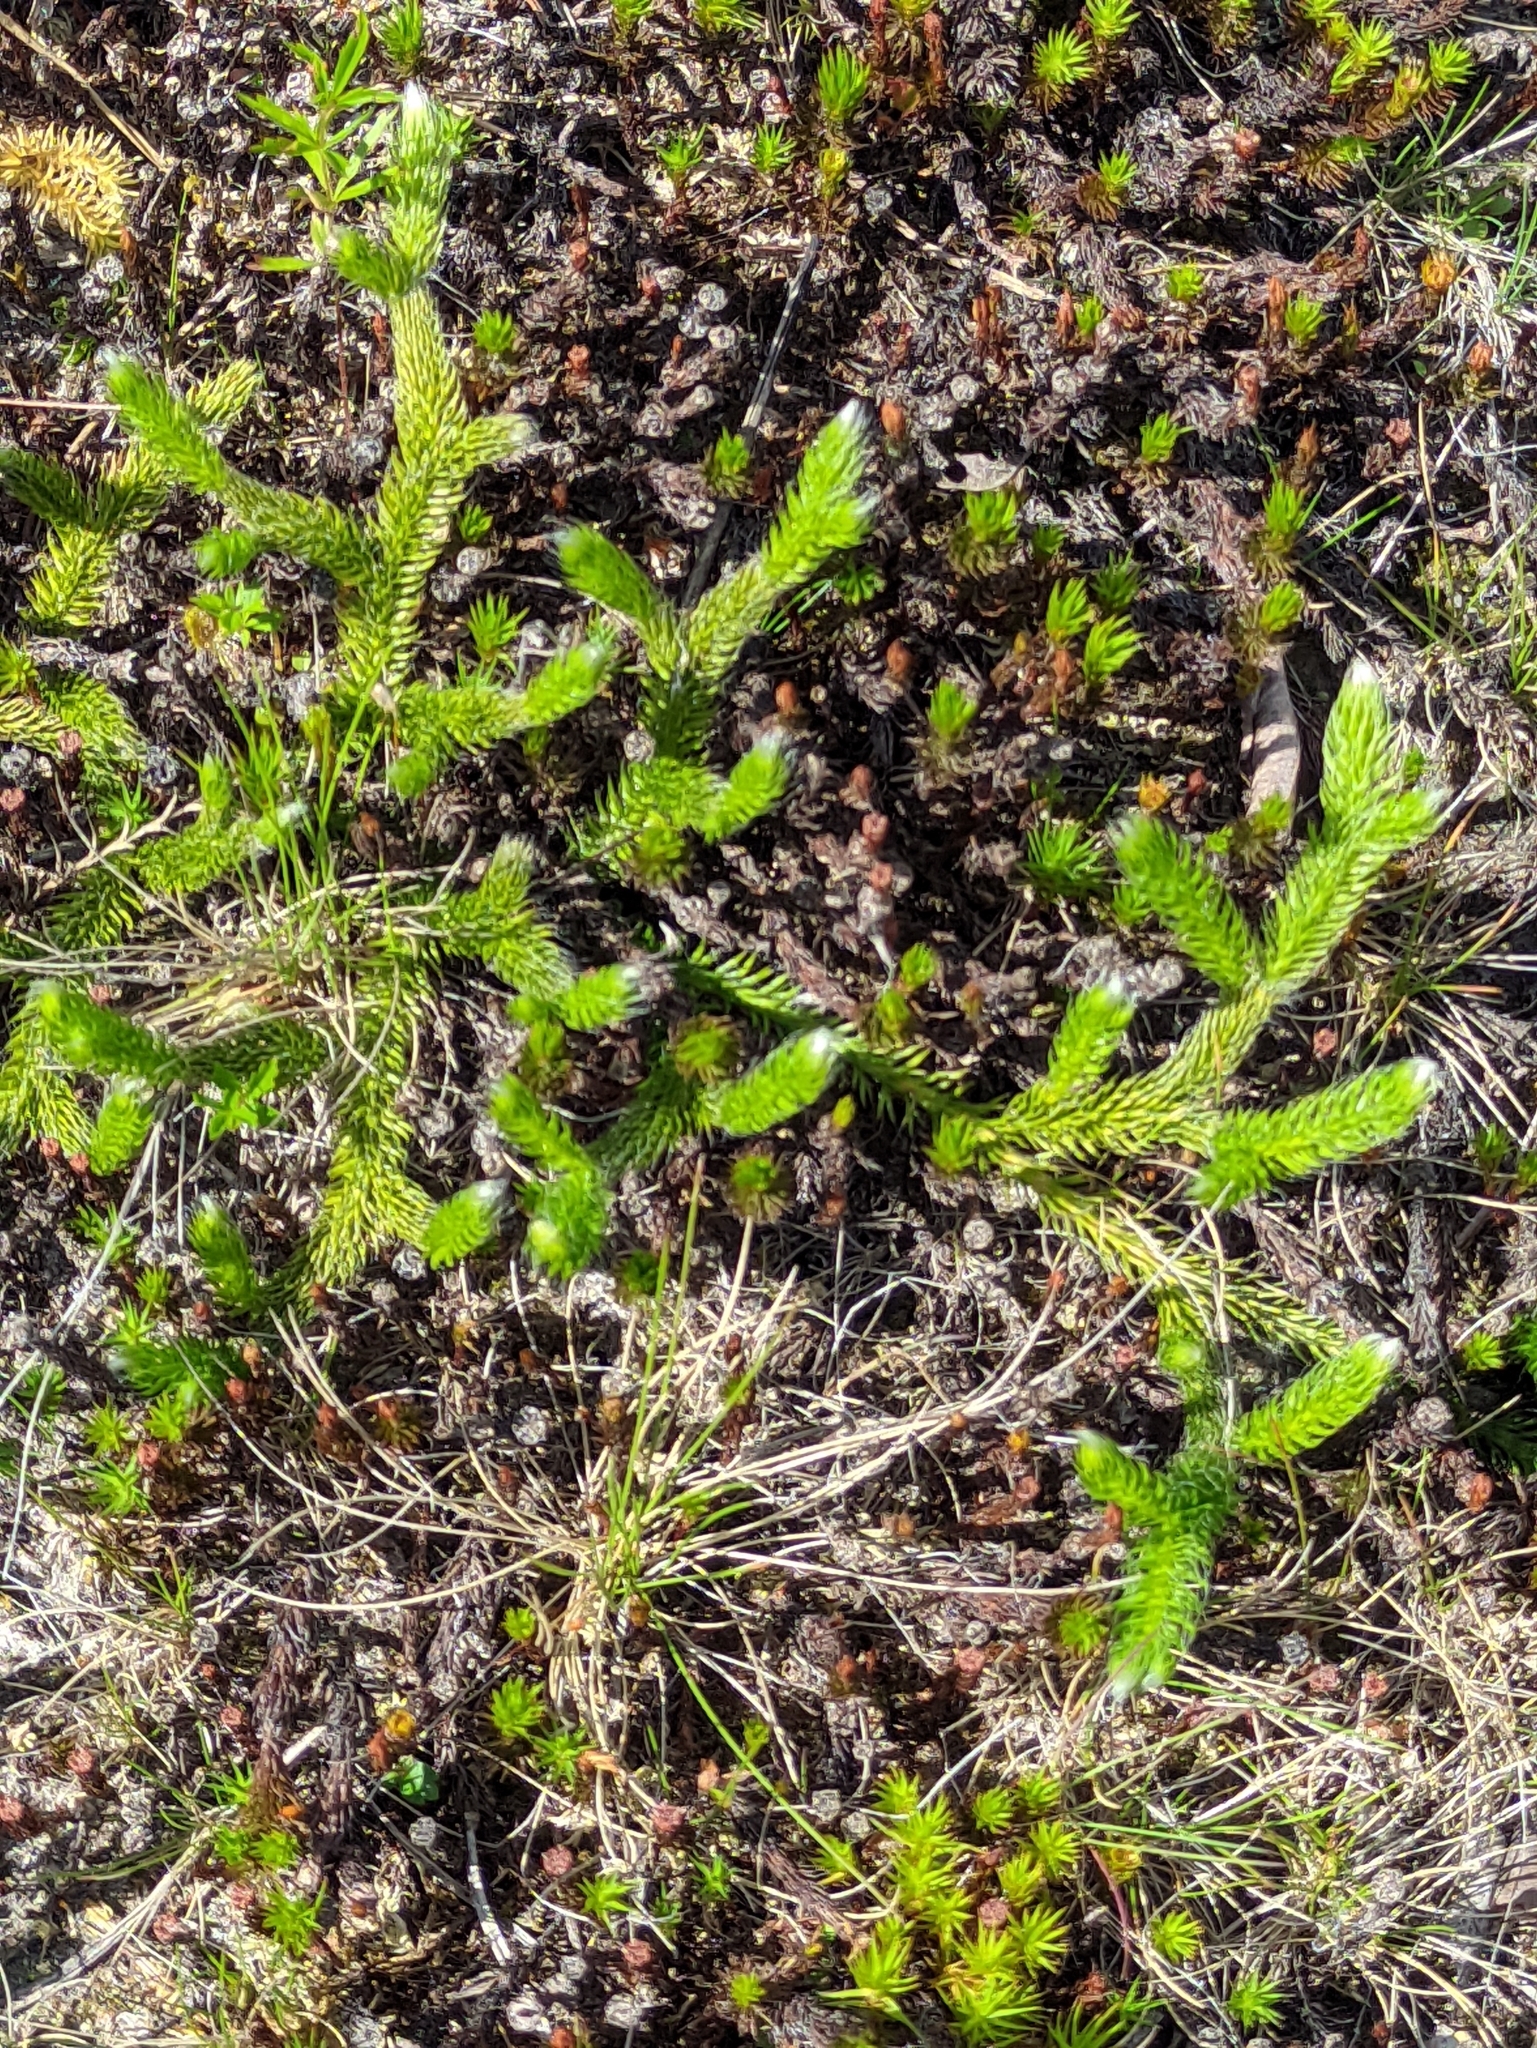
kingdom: Plantae
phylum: Tracheophyta
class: Lycopodiopsida
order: Lycopodiales
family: Lycopodiaceae
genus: Lycopodium
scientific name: Lycopodium clavatum
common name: Stag's-horn clubmoss
